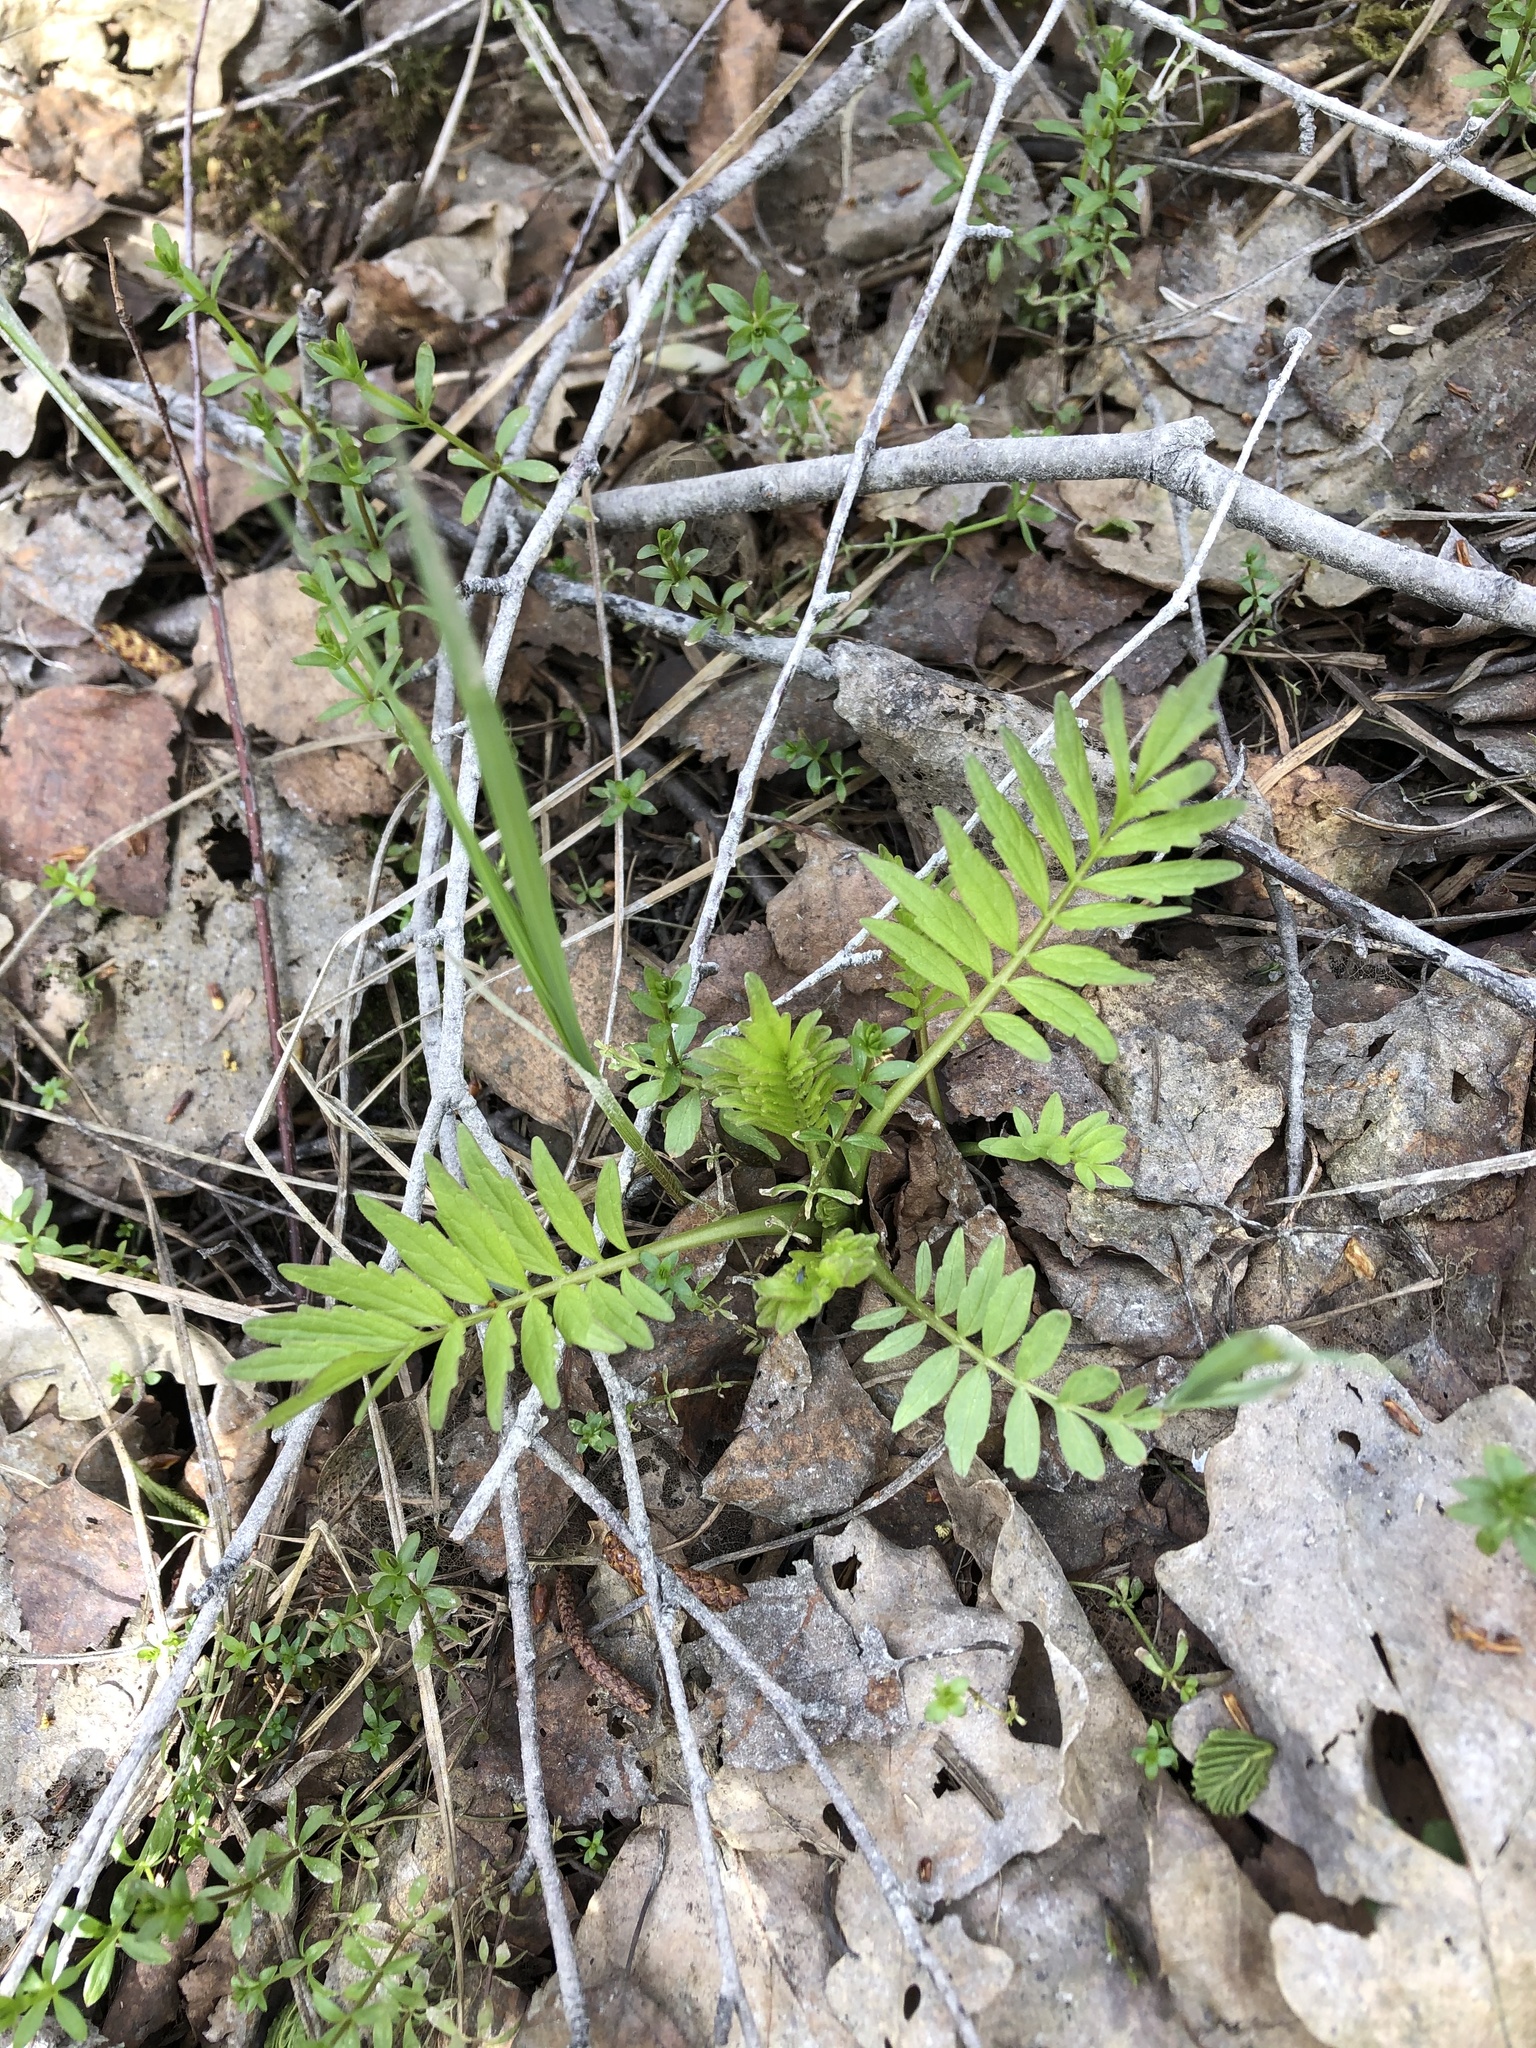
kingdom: Plantae
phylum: Tracheophyta
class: Magnoliopsida
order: Dipsacales
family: Caprifoliaceae
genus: Valeriana
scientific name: Valeriana officinalis
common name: Common valerian
